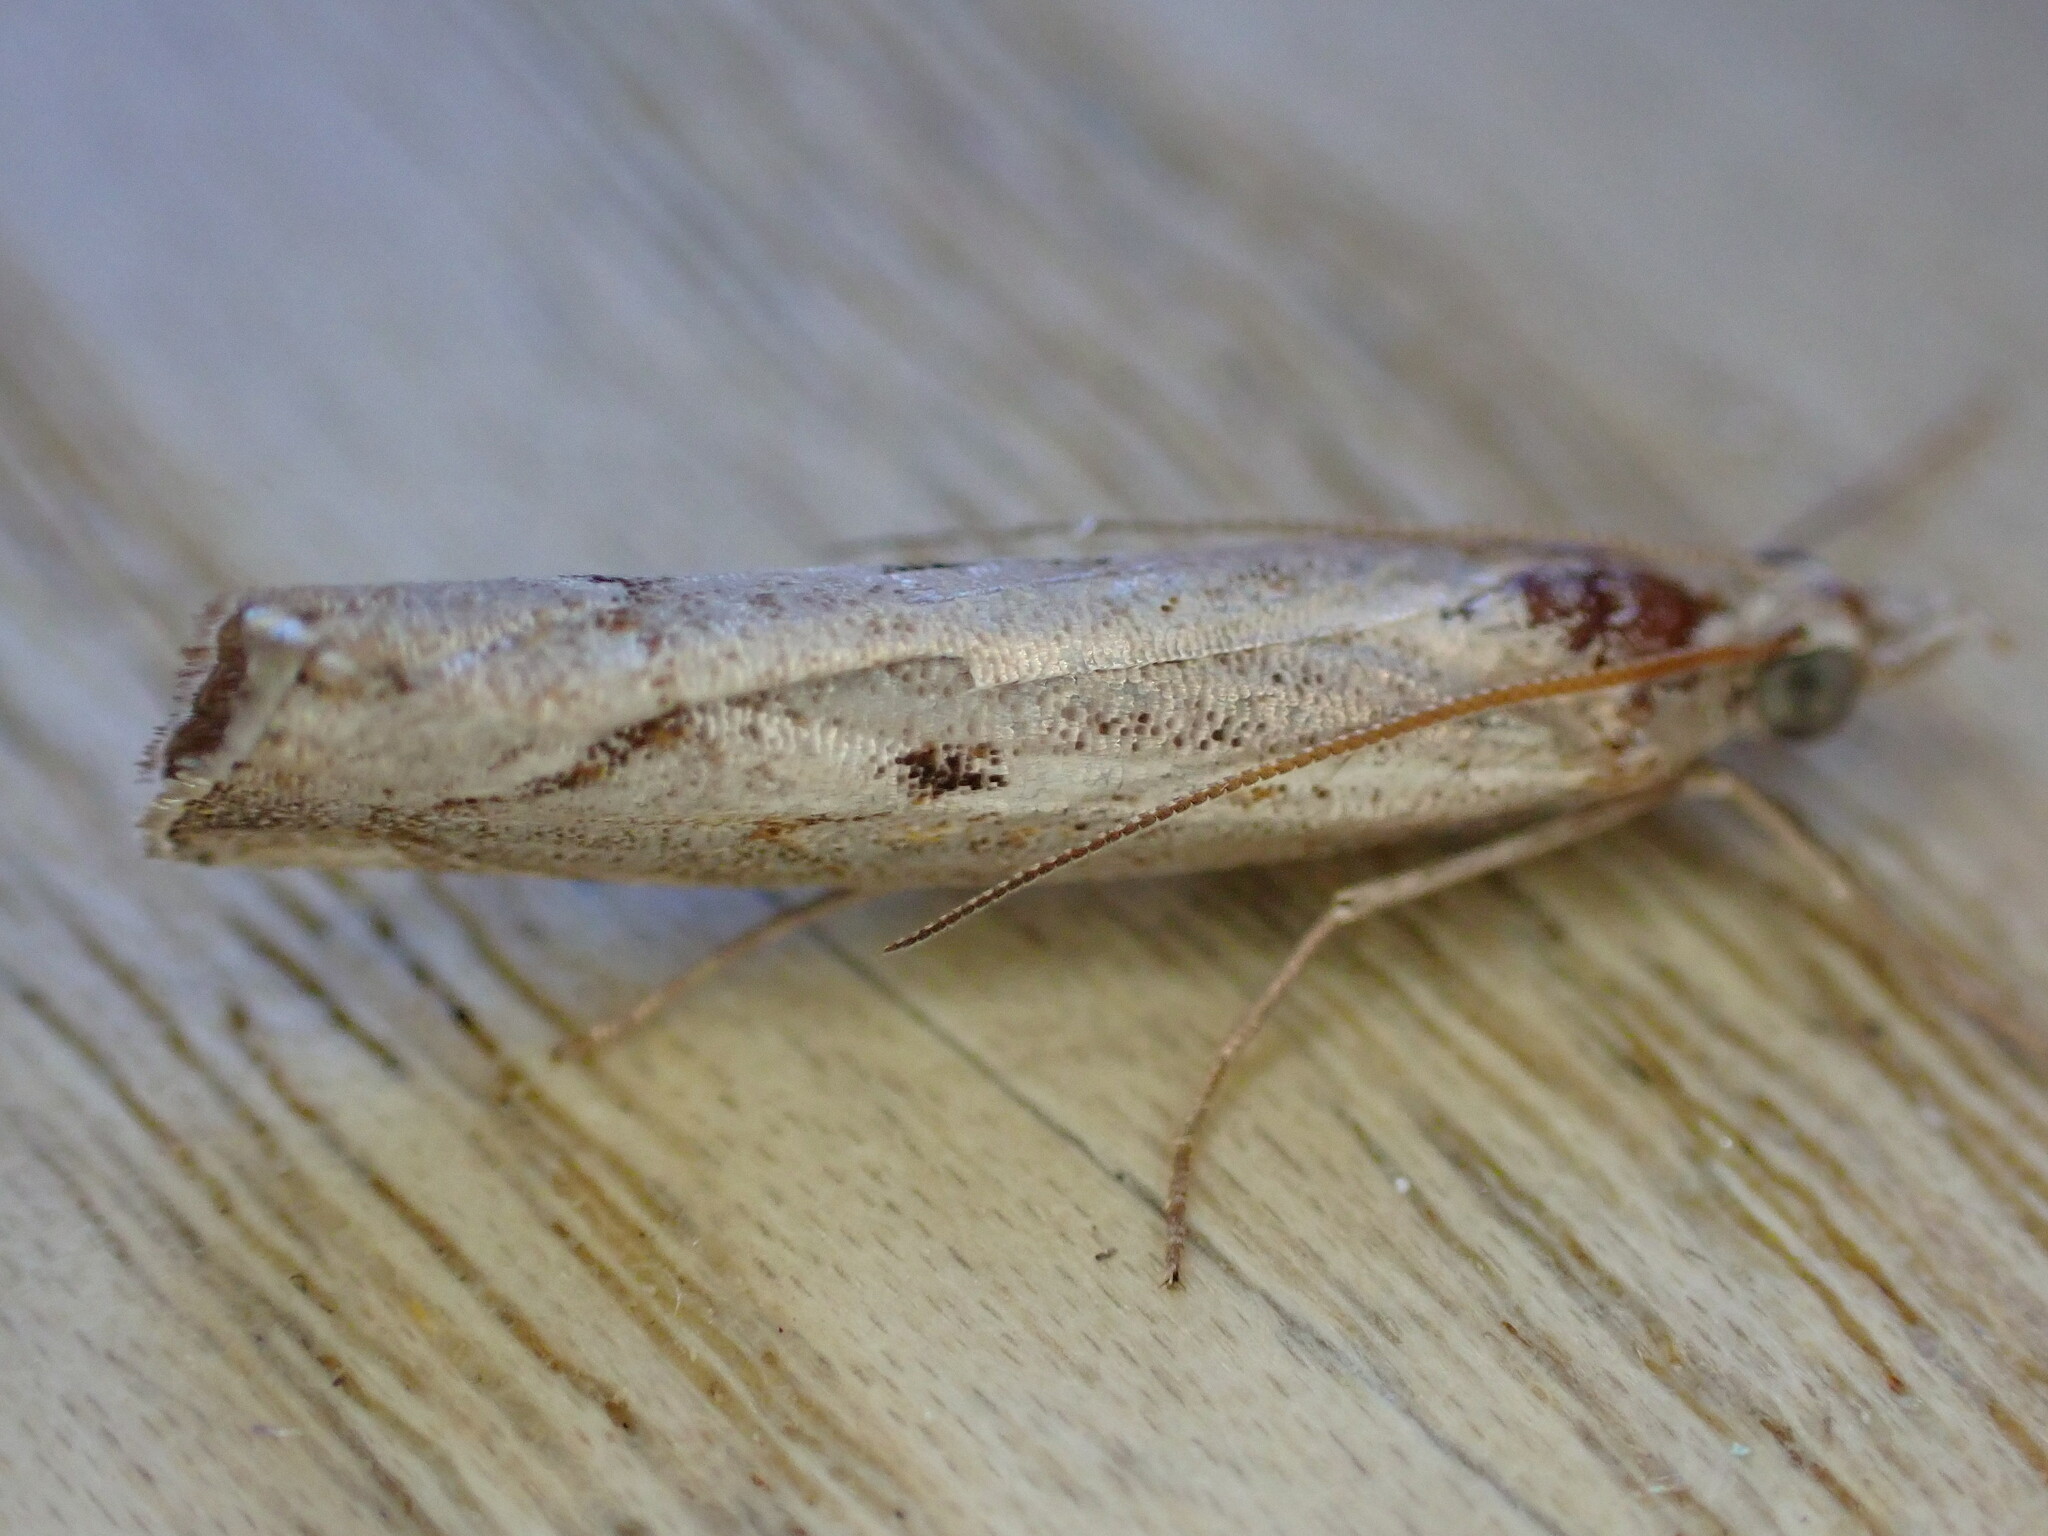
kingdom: Animalia
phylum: Arthropoda
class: Insecta
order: Lepidoptera
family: Crambidae
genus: Agriphila
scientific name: Agriphila geniculea
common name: Elbow-stripe grass-veneer
